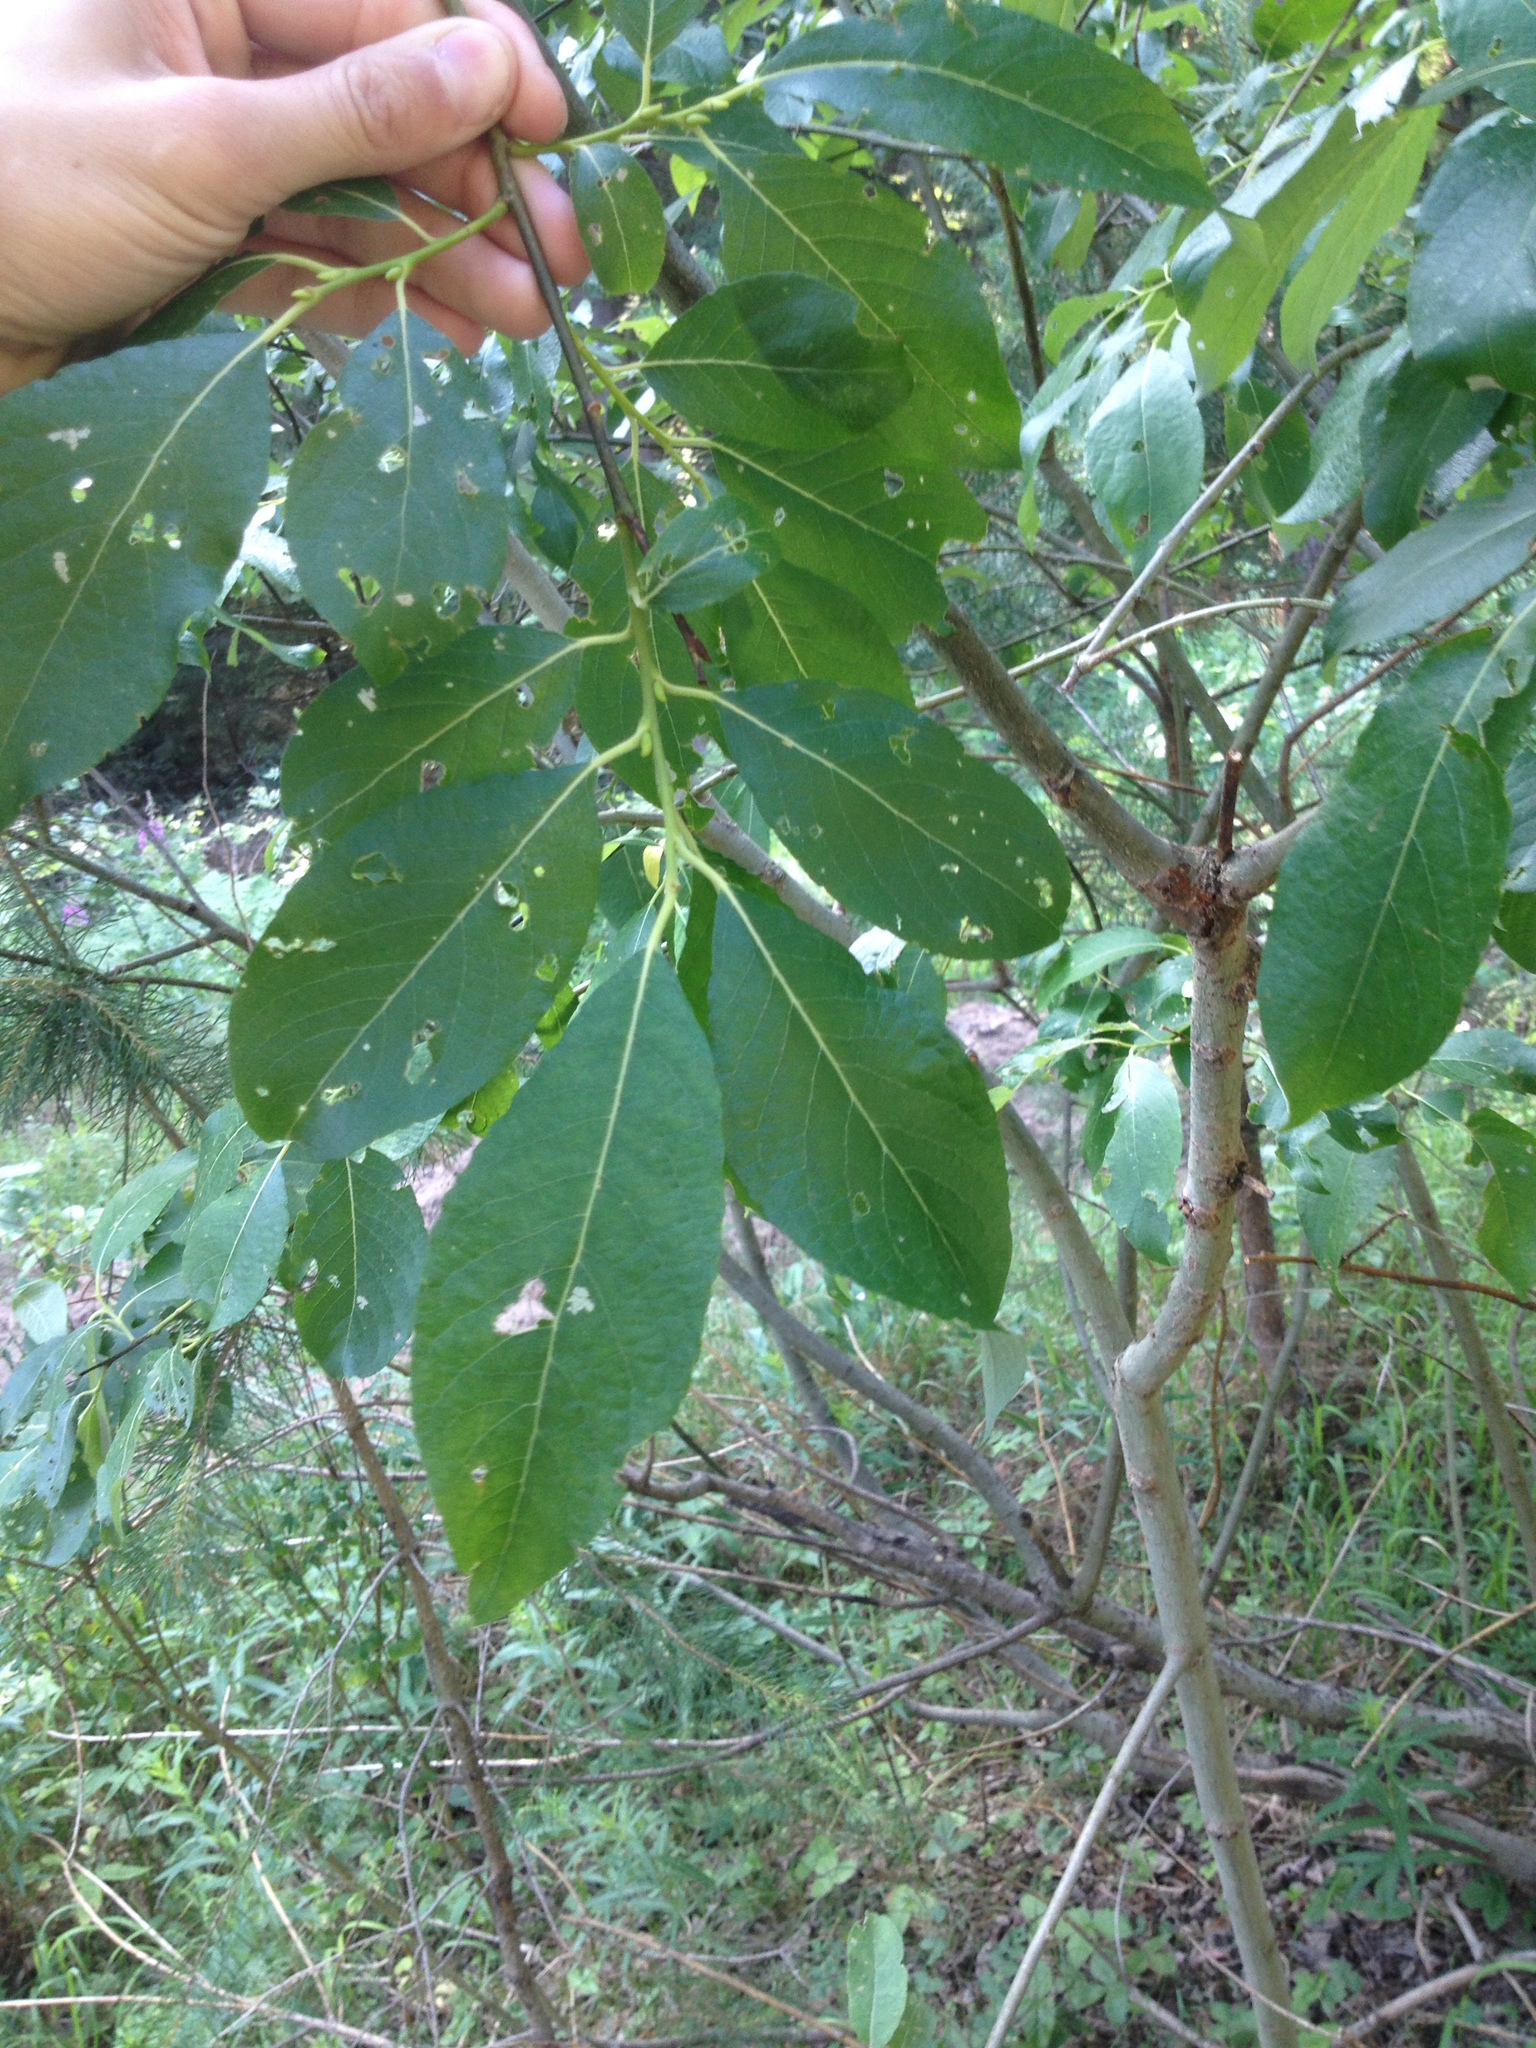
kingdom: Plantae
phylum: Tracheophyta
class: Magnoliopsida
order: Malpighiales
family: Salicaceae
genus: Salix
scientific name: Salix caprea
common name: Goat willow
